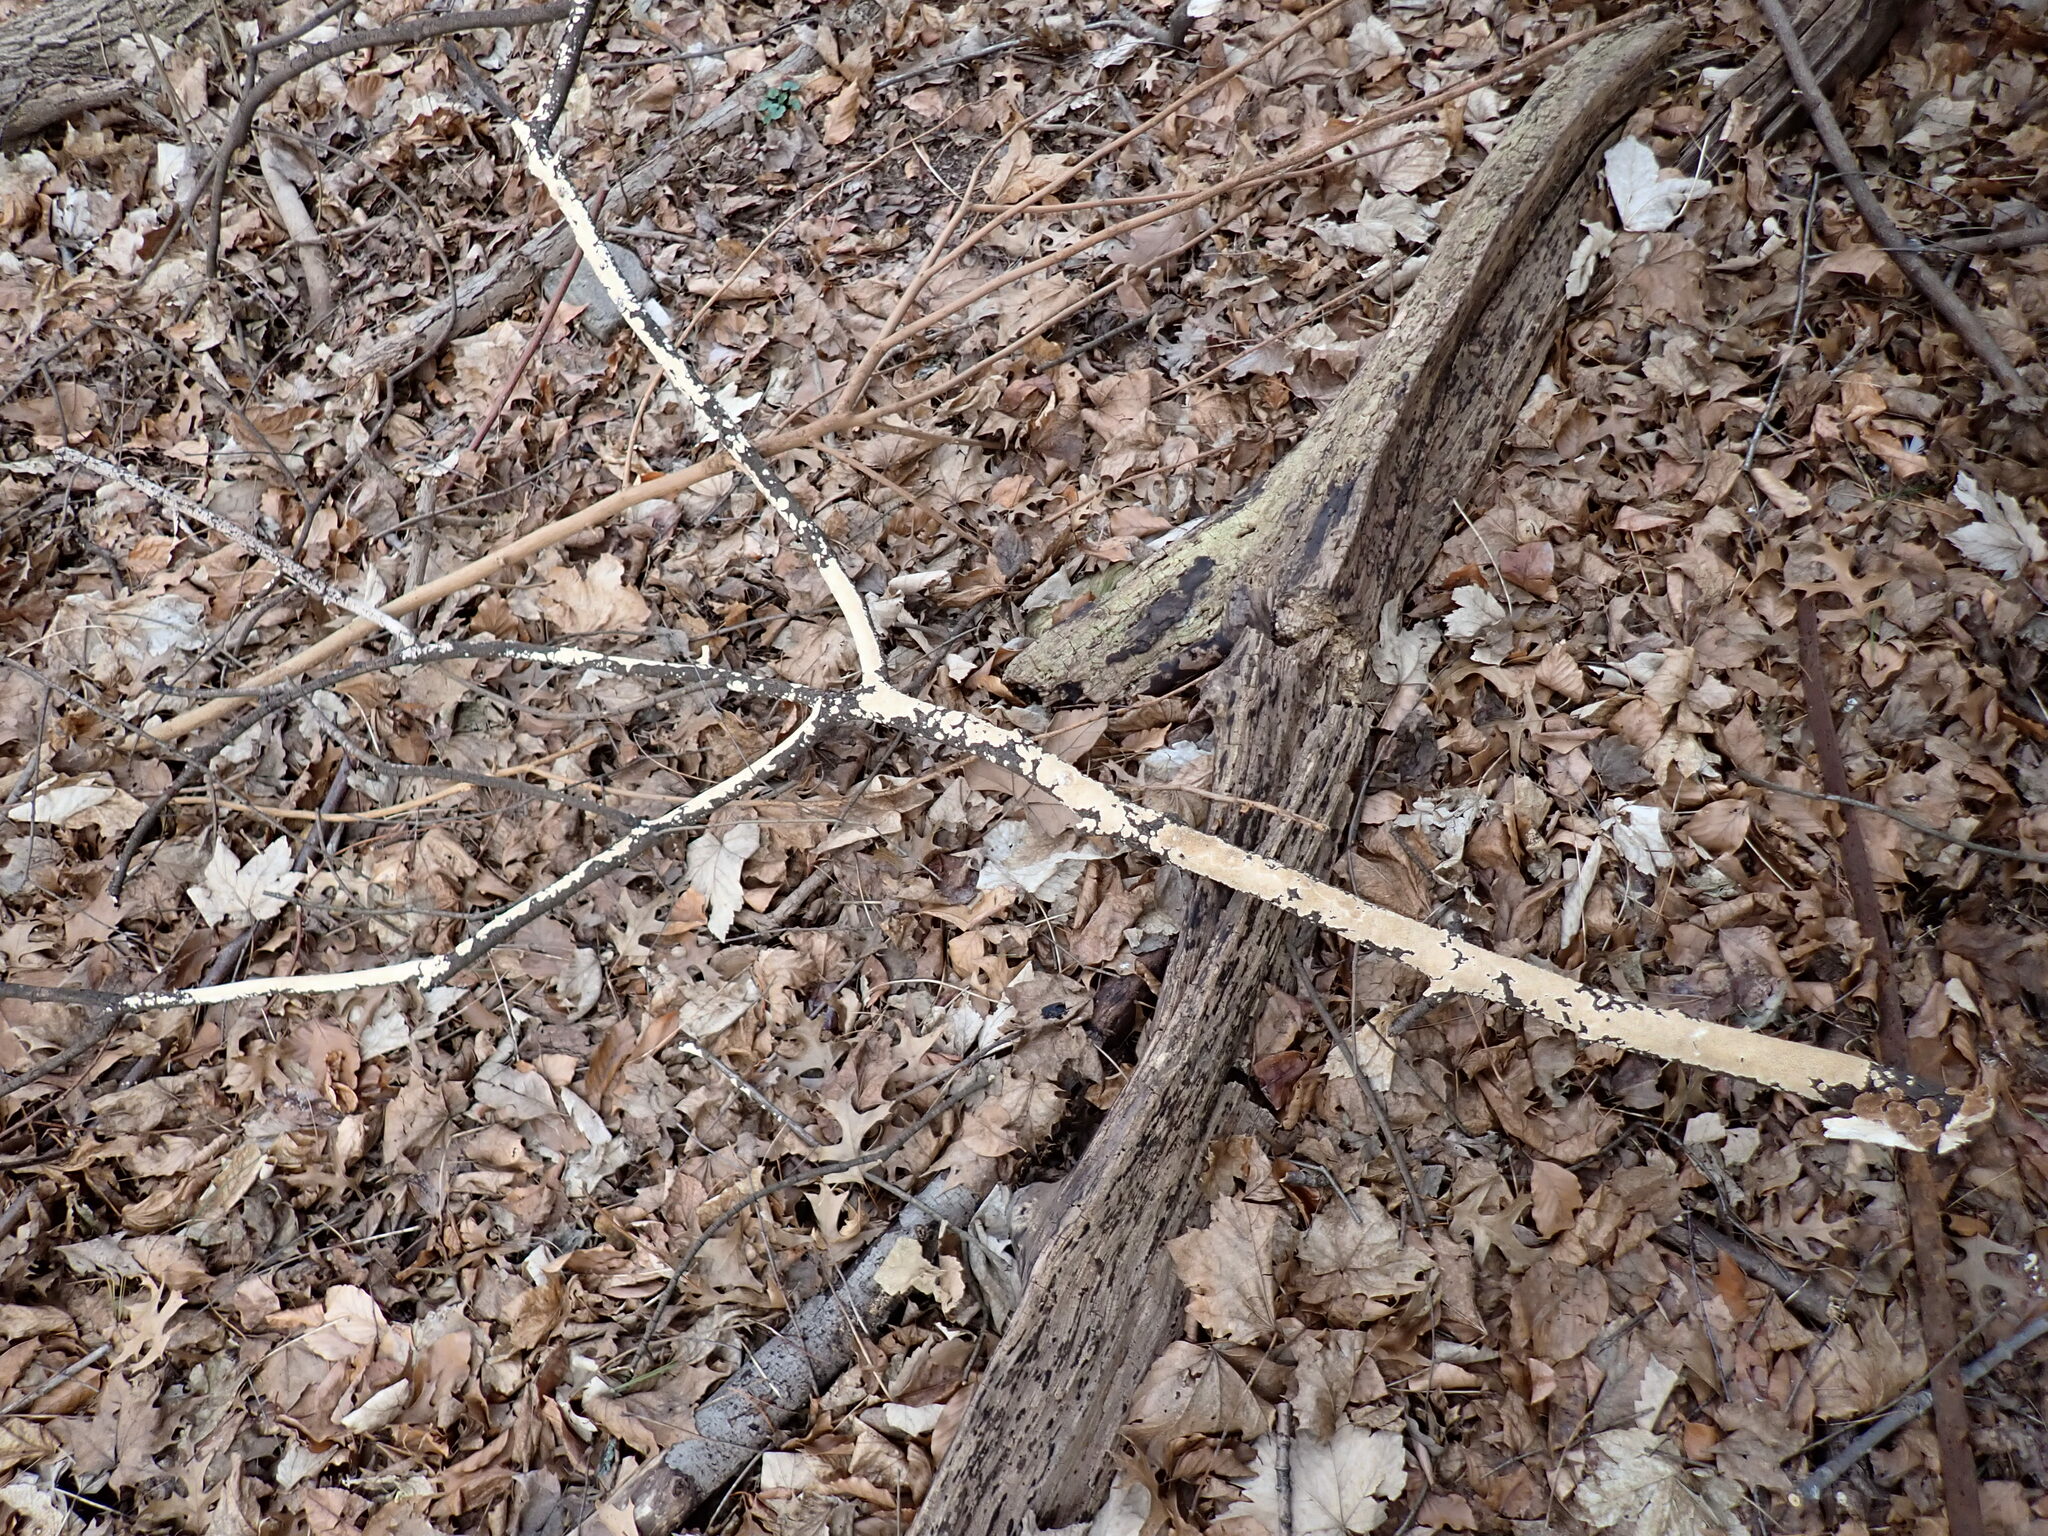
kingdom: Fungi
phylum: Basidiomycota
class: Agaricomycetes
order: Polyporales
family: Irpicaceae
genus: Irpex
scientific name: Irpex lacteus
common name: Milk-white toothed polypore
